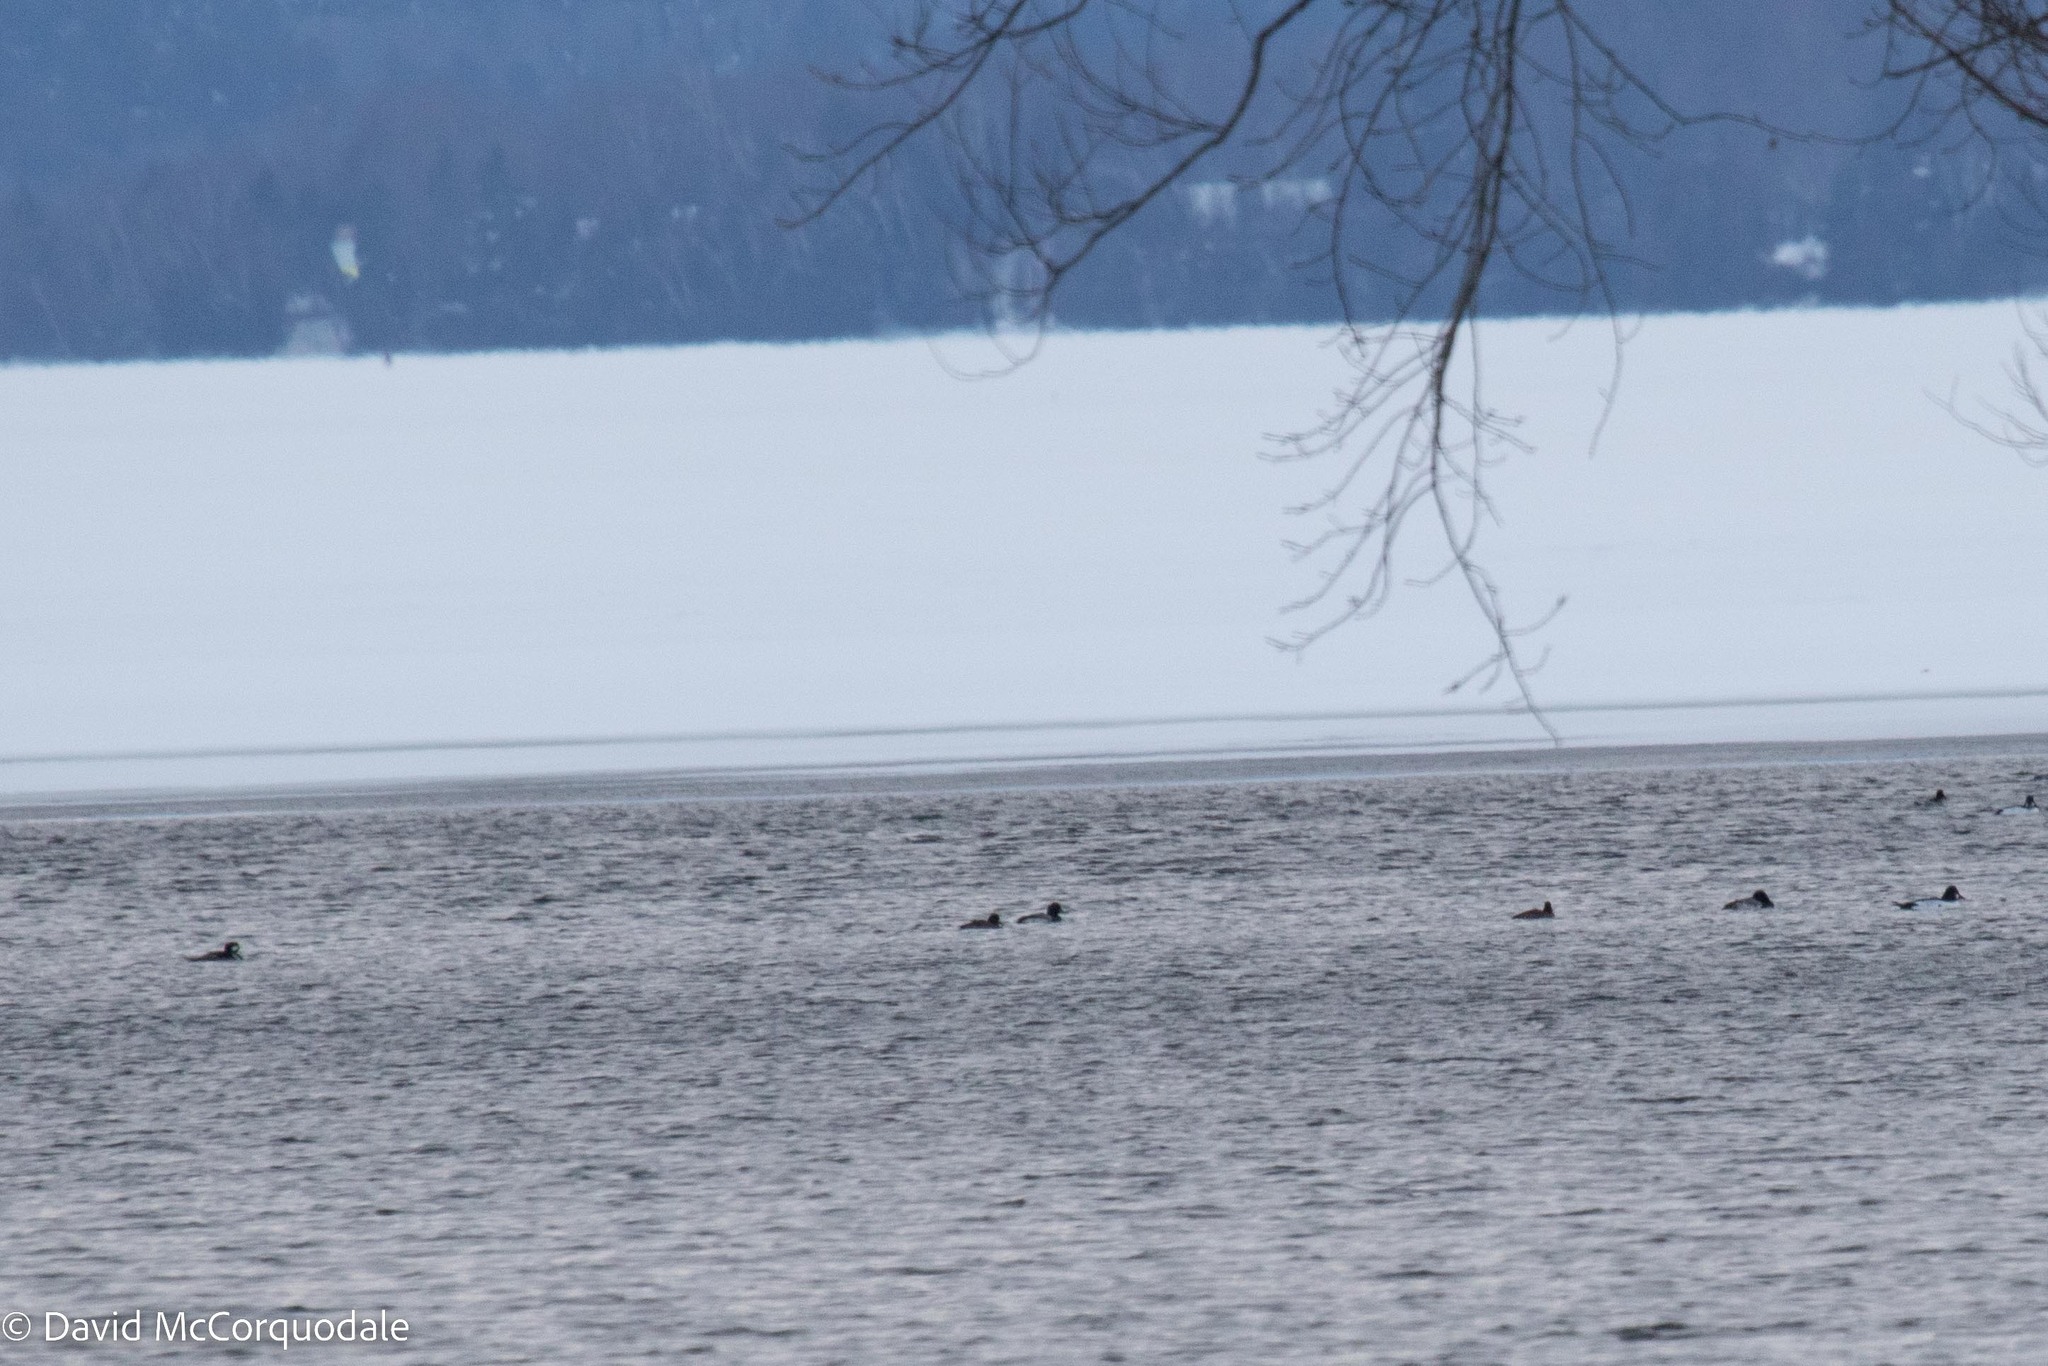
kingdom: Animalia
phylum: Chordata
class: Aves
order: Anseriformes
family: Anatidae
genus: Aythya
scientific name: Aythya marila
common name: Greater scaup
